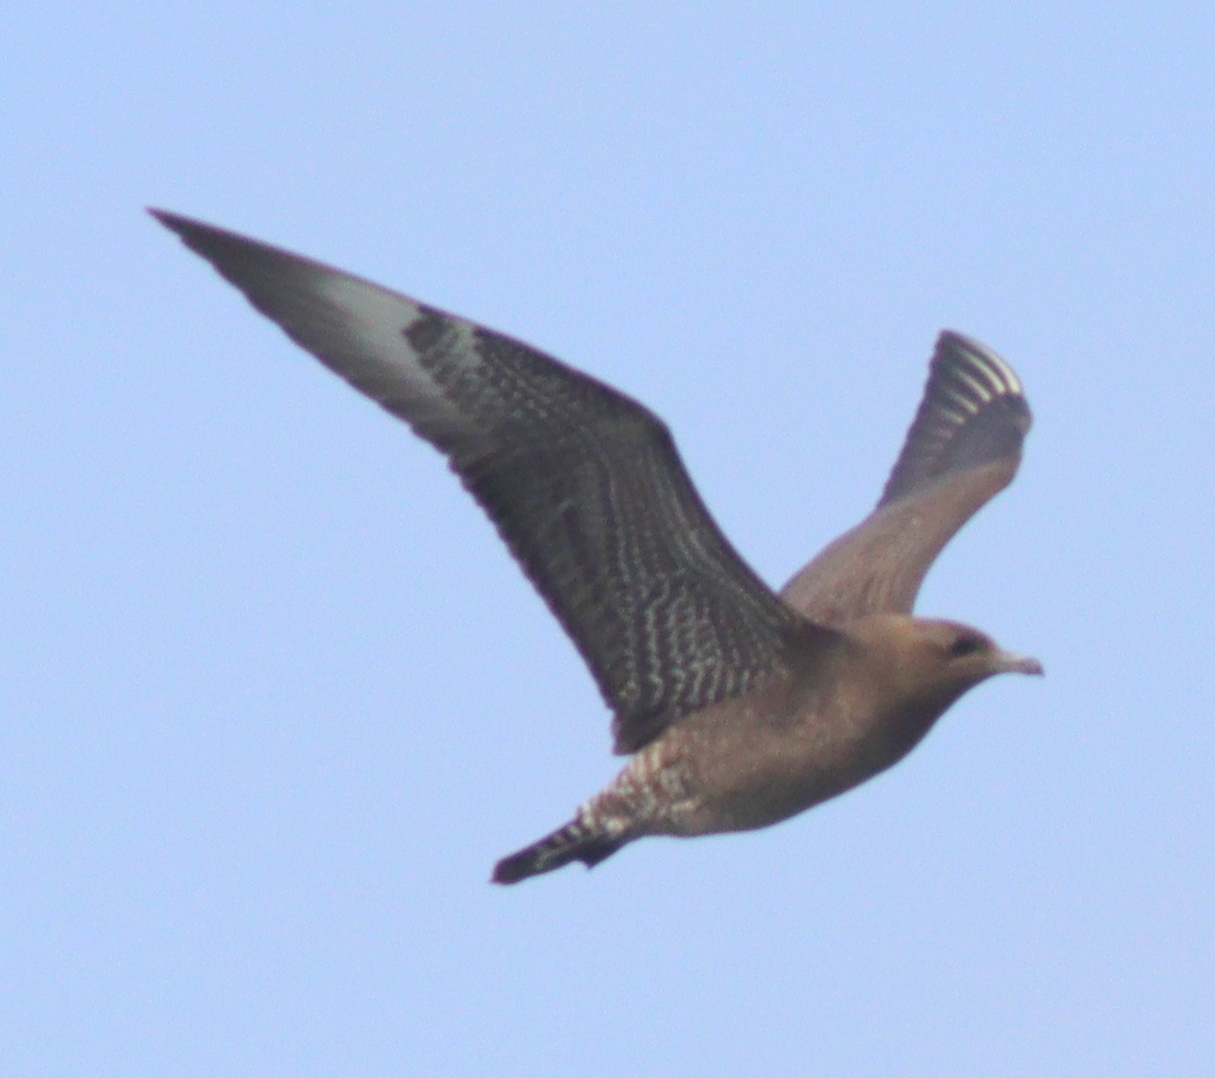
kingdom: Animalia
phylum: Chordata
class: Aves
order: Charadriiformes
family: Stercorariidae
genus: Stercorarius
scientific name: Stercorarius pomarinus
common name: Pomarine jaeger
